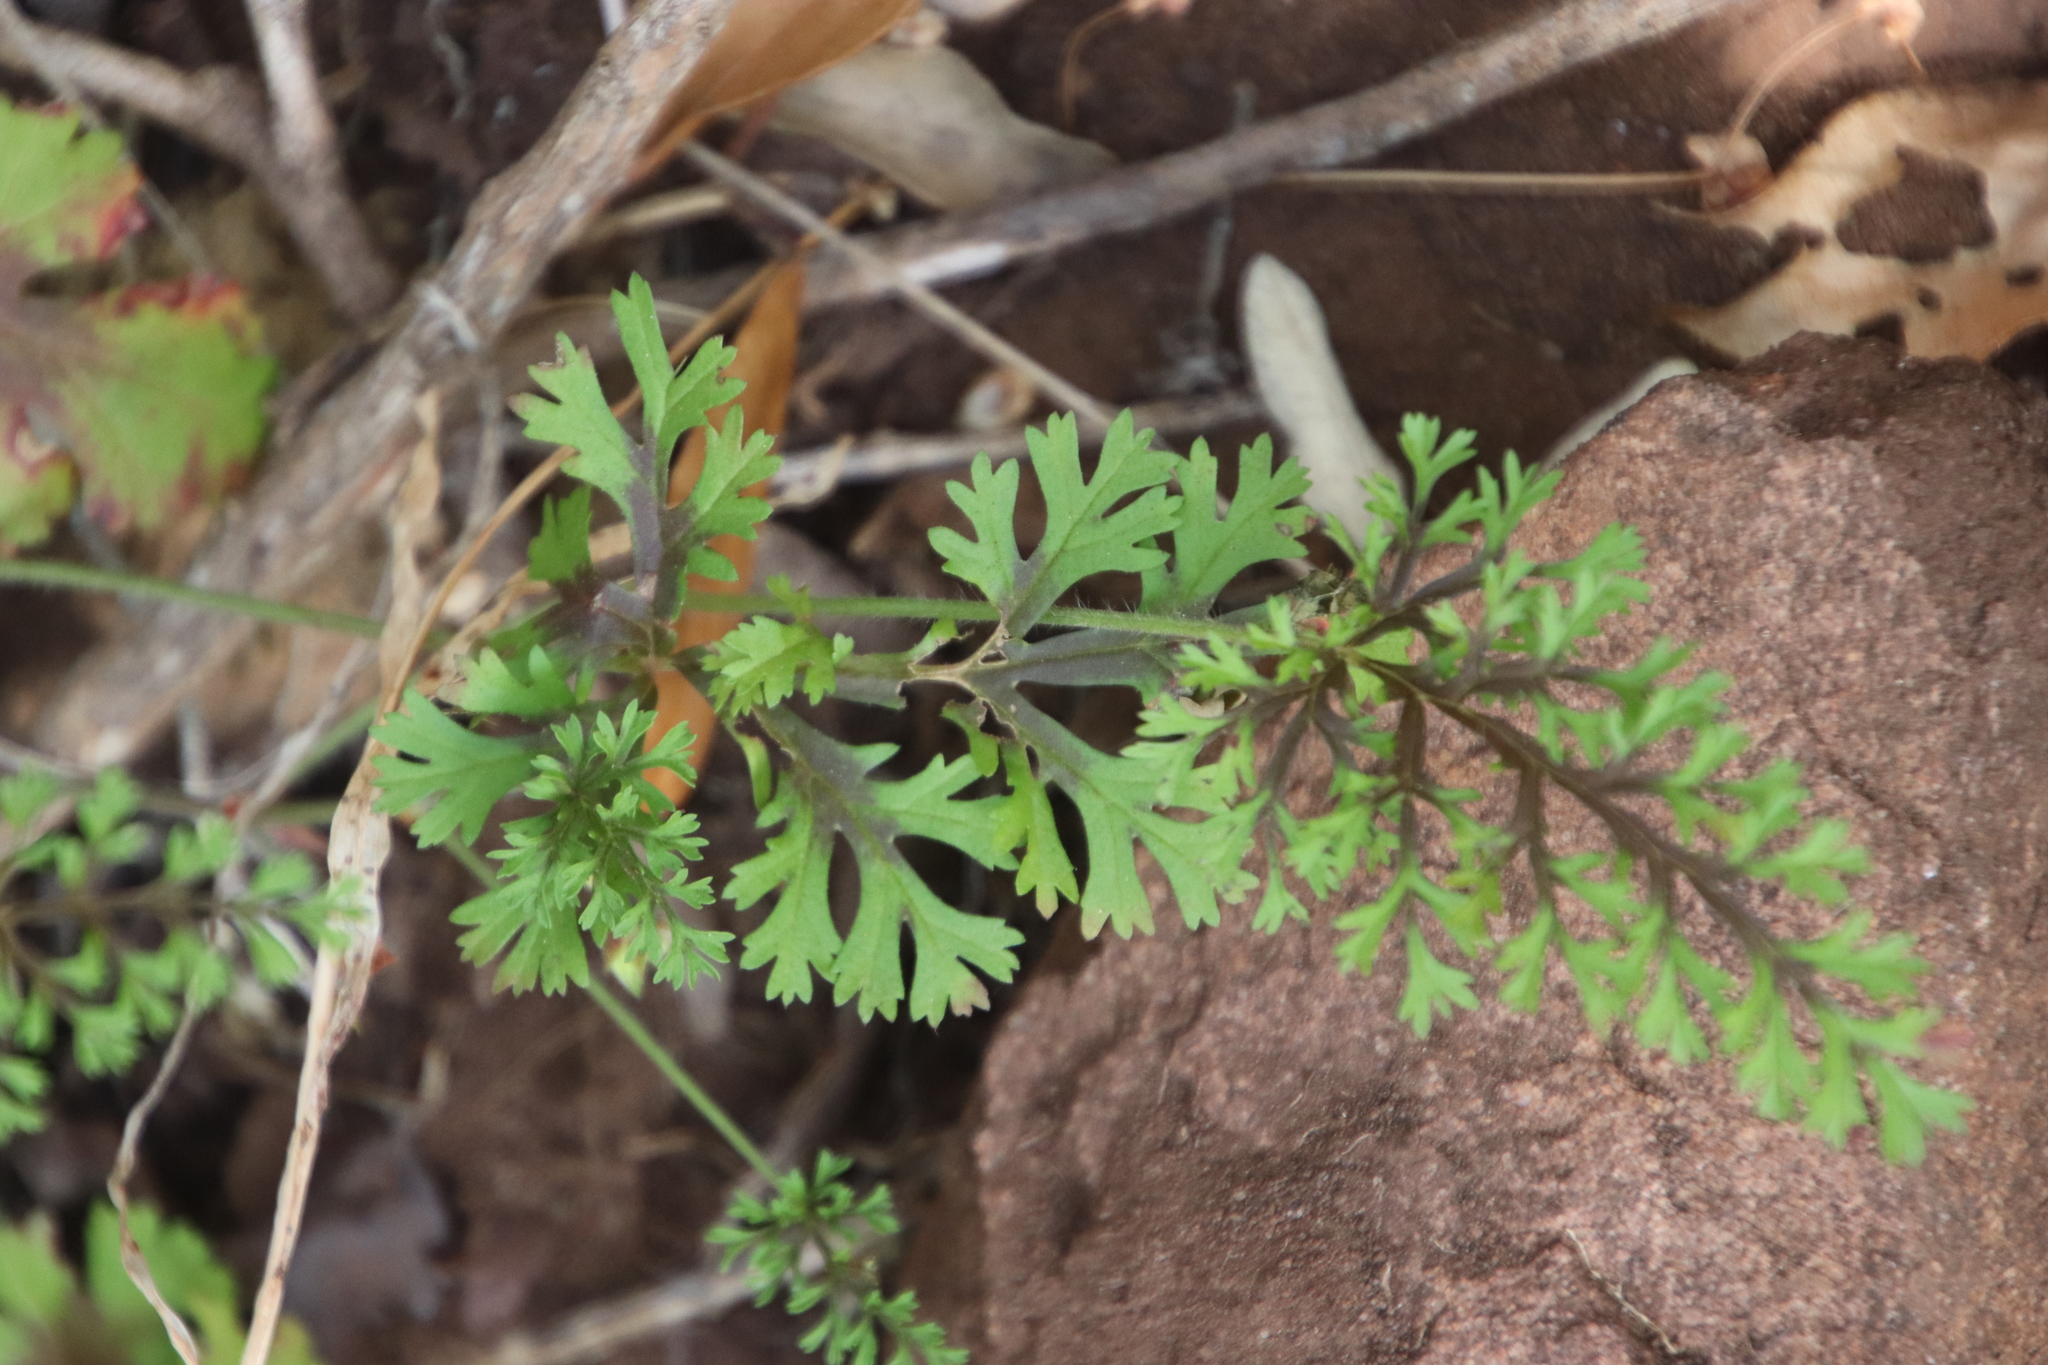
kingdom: Plantae
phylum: Tracheophyta
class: Magnoliopsida
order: Geraniales
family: Geraniaceae
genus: Pelargonium
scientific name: Pelargonium longicaule
